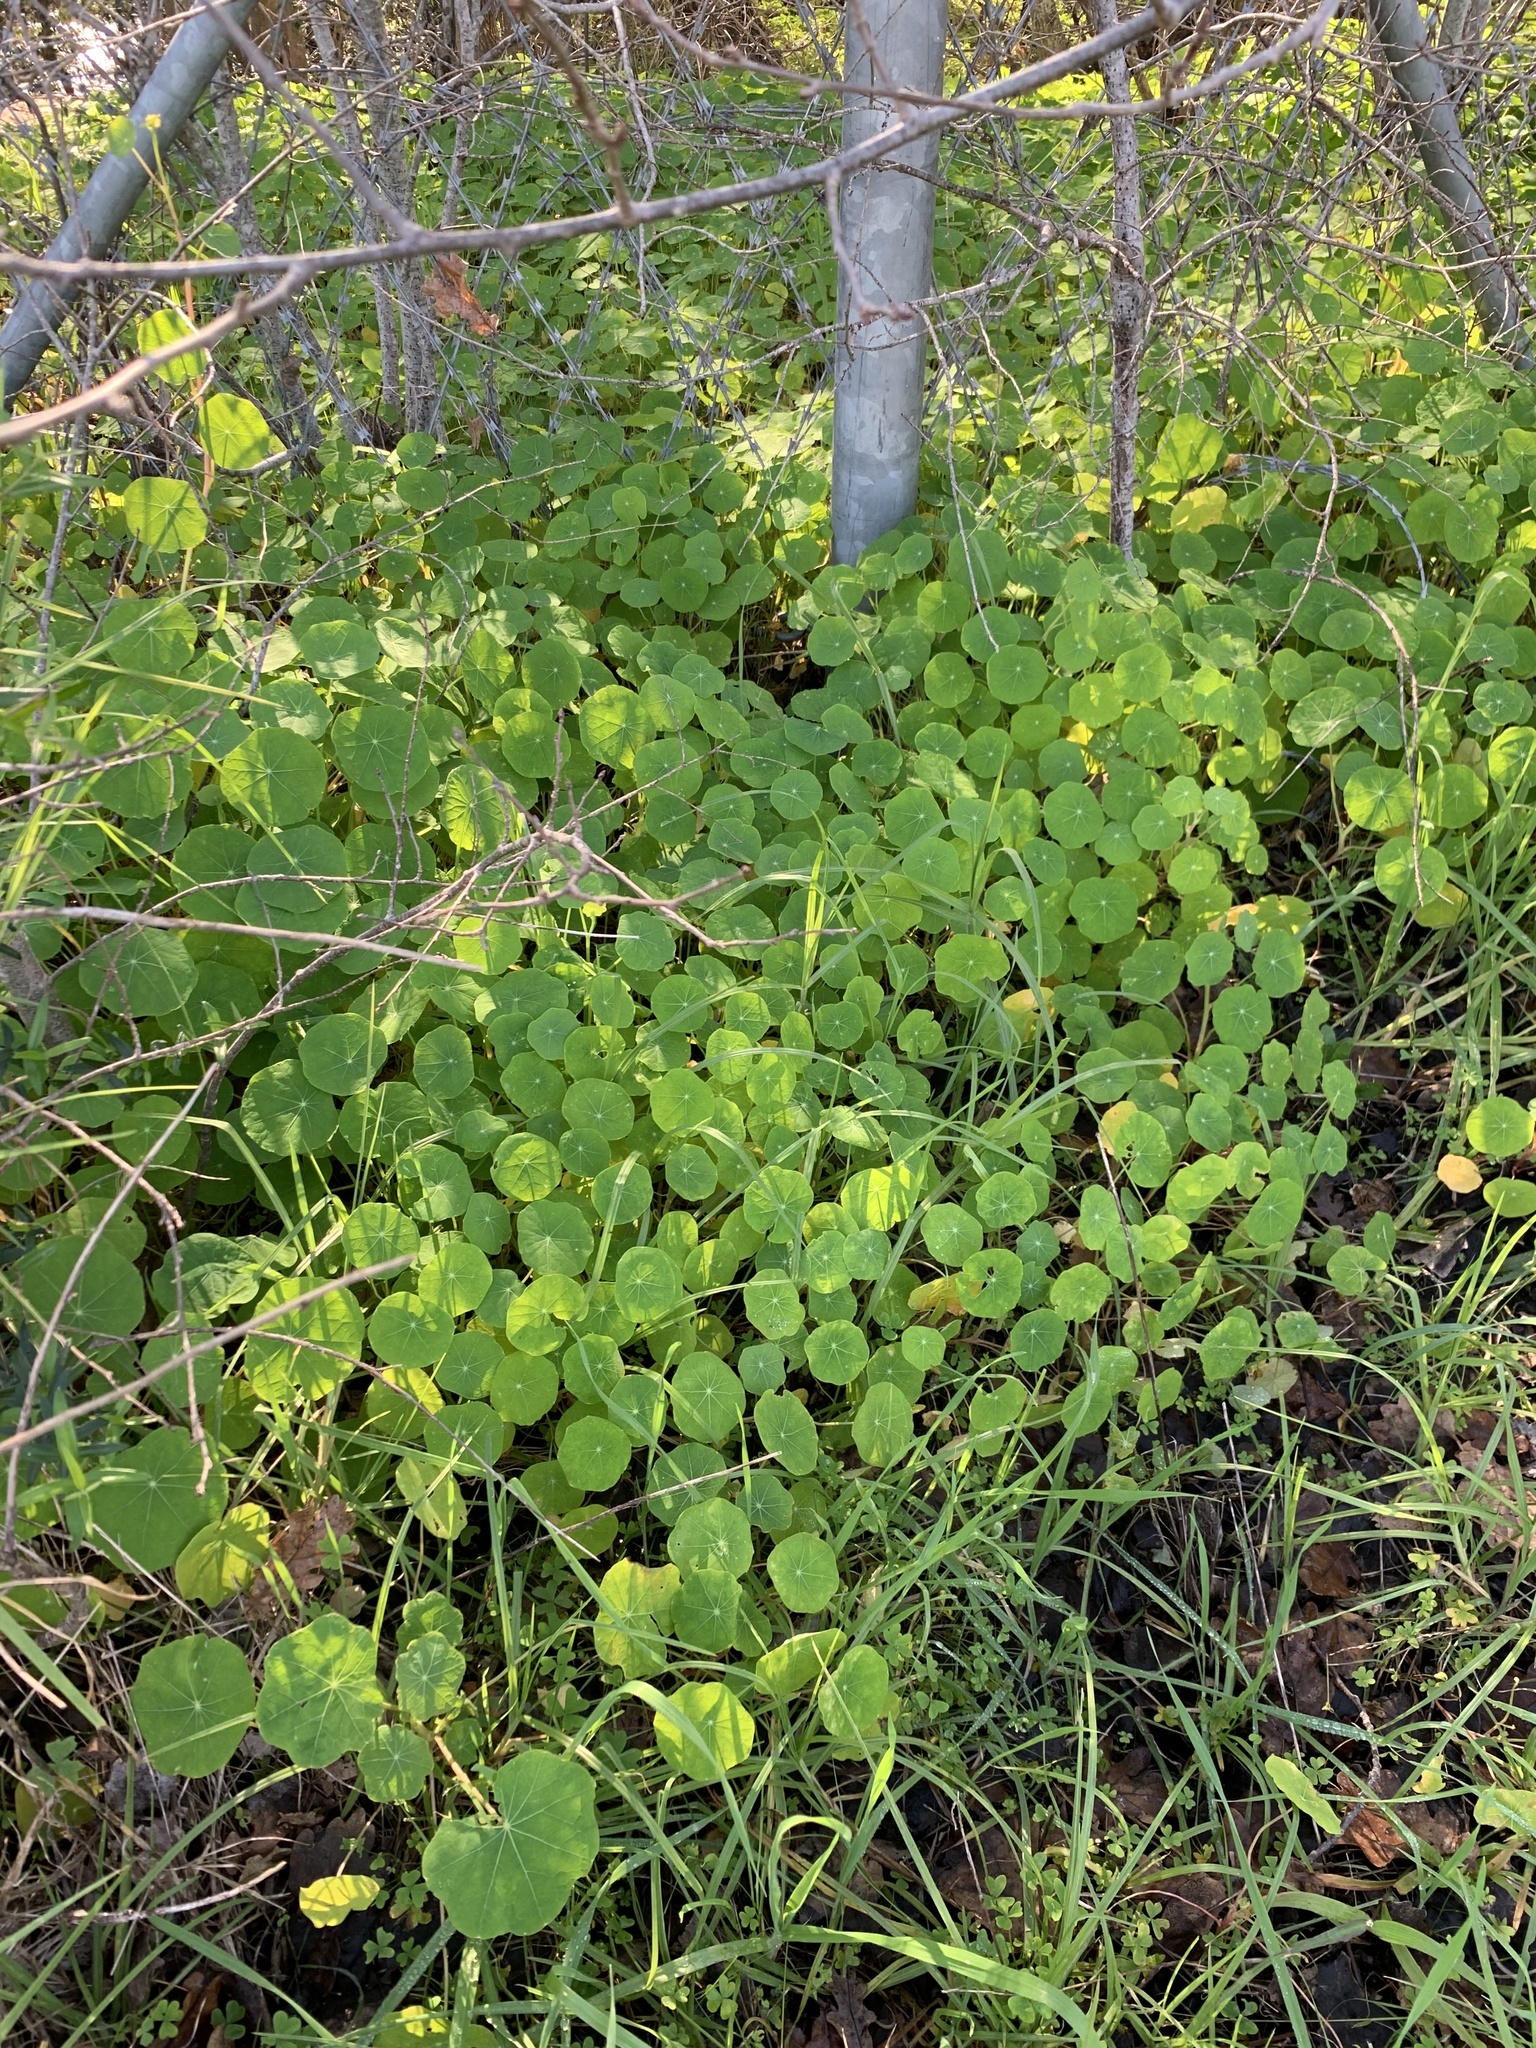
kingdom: Plantae
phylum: Tracheophyta
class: Magnoliopsida
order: Brassicales
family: Tropaeolaceae
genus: Tropaeolum
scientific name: Tropaeolum majus
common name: Nasturtium
